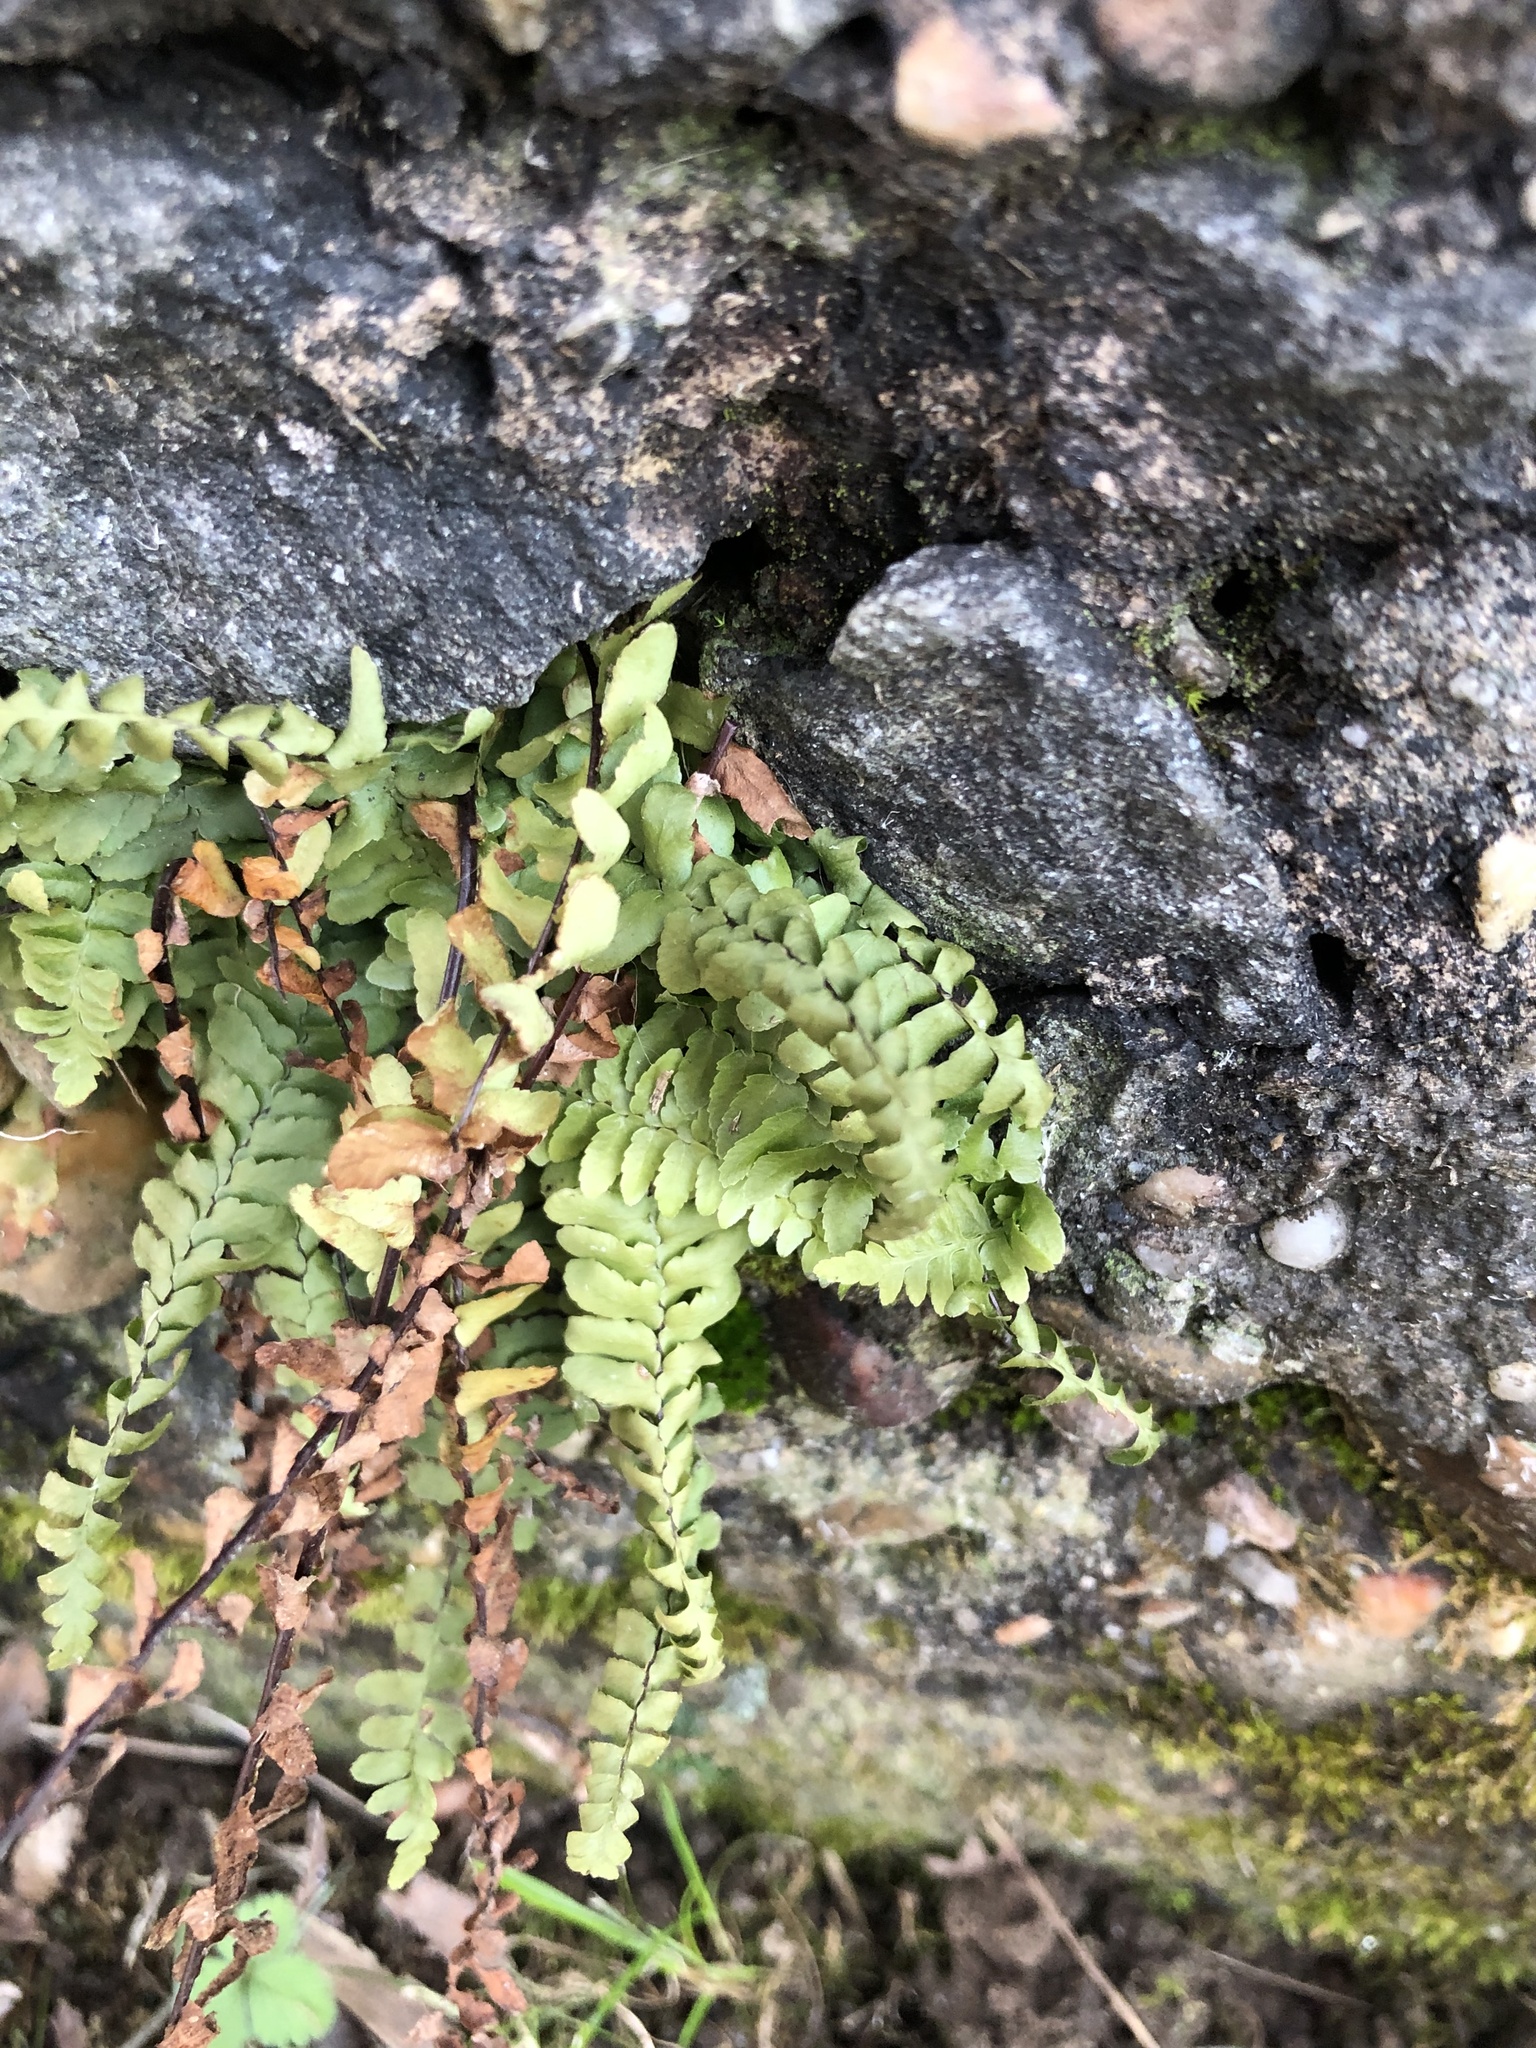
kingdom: Plantae
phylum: Tracheophyta
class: Polypodiopsida
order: Polypodiales
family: Aspleniaceae
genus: Asplenium
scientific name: Asplenium platyneuron
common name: Ebony spleenwort
